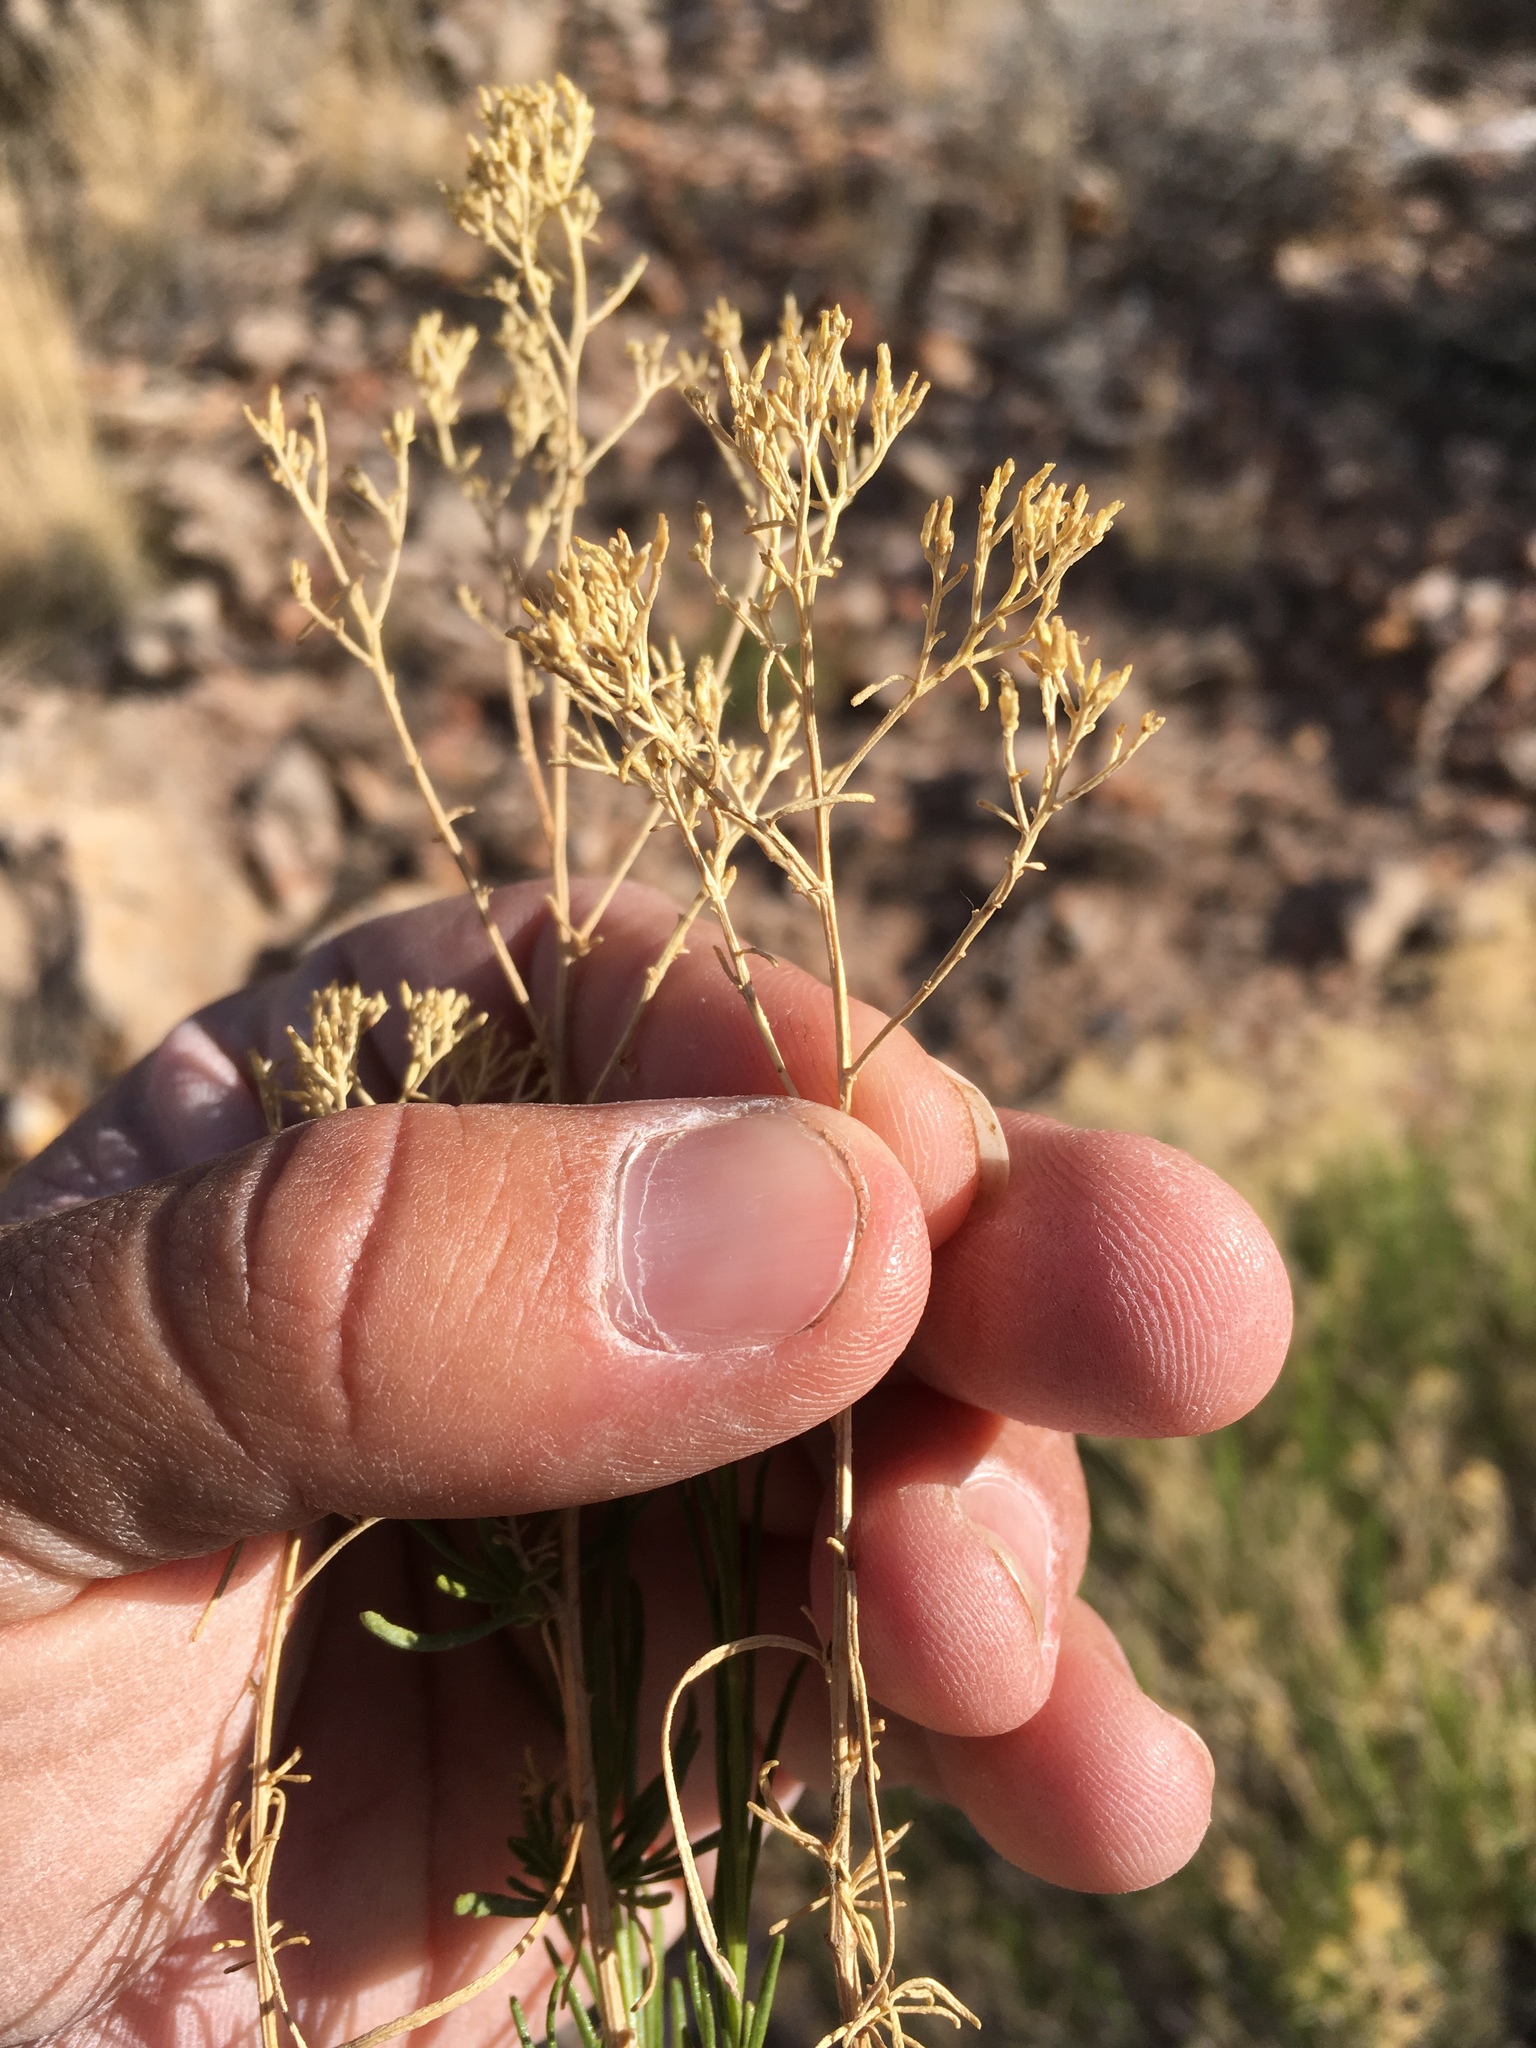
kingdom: Plantae
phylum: Tracheophyta
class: Magnoliopsida
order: Asterales
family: Asteraceae
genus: Gutierrezia
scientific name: Gutierrezia microcephala
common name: Thread snakeweed
